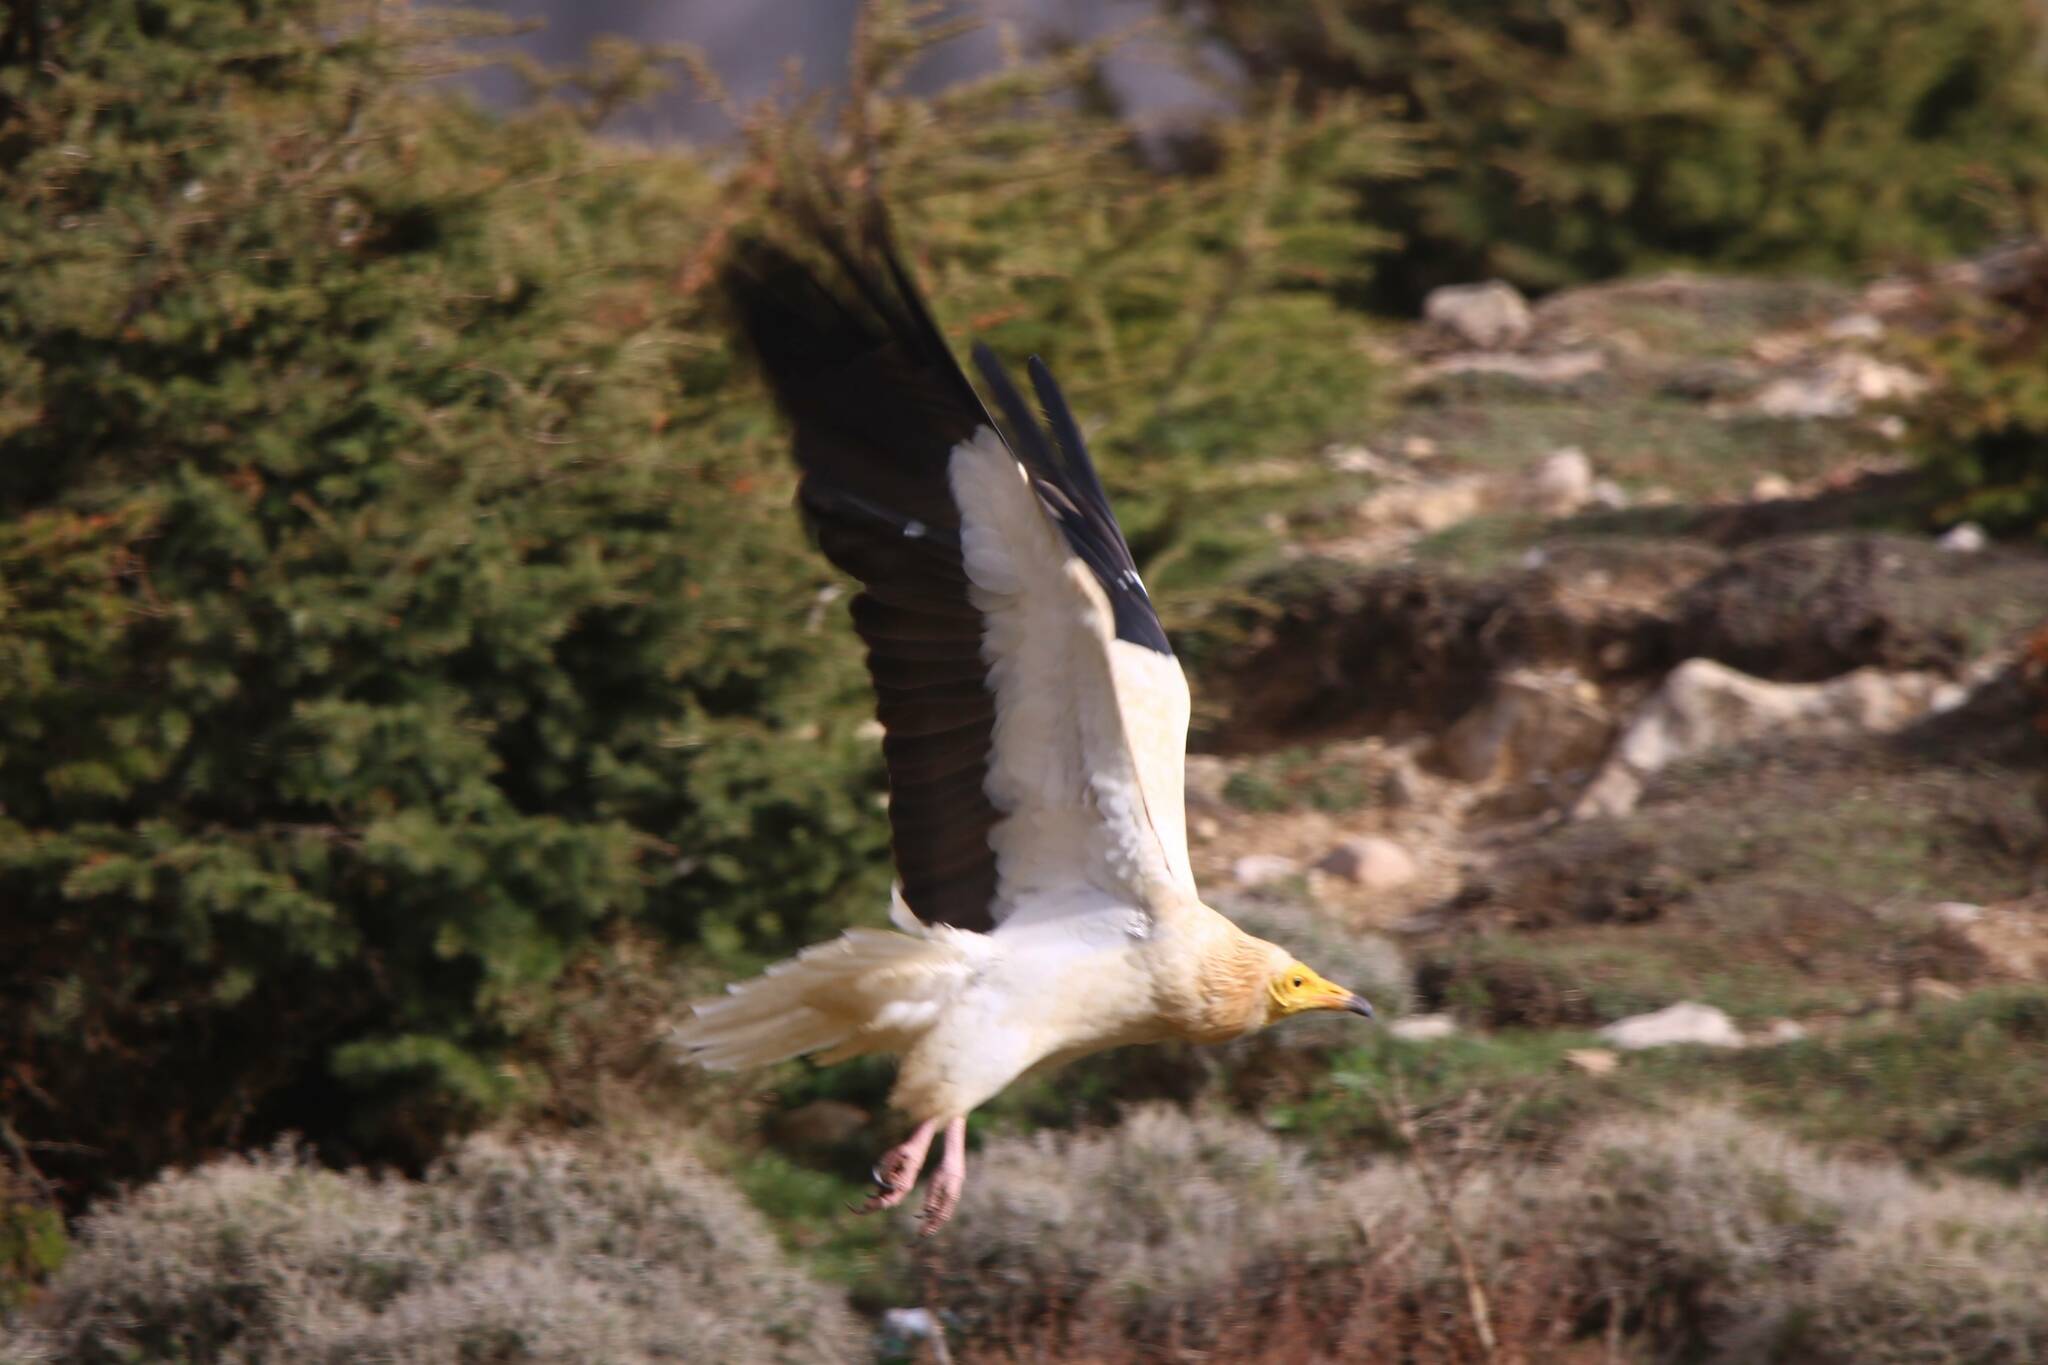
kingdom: Animalia
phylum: Chordata
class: Aves
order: Accipitriformes
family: Accipitridae
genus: Neophron
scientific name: Neophron percnopterus
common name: Egyptian vulture
